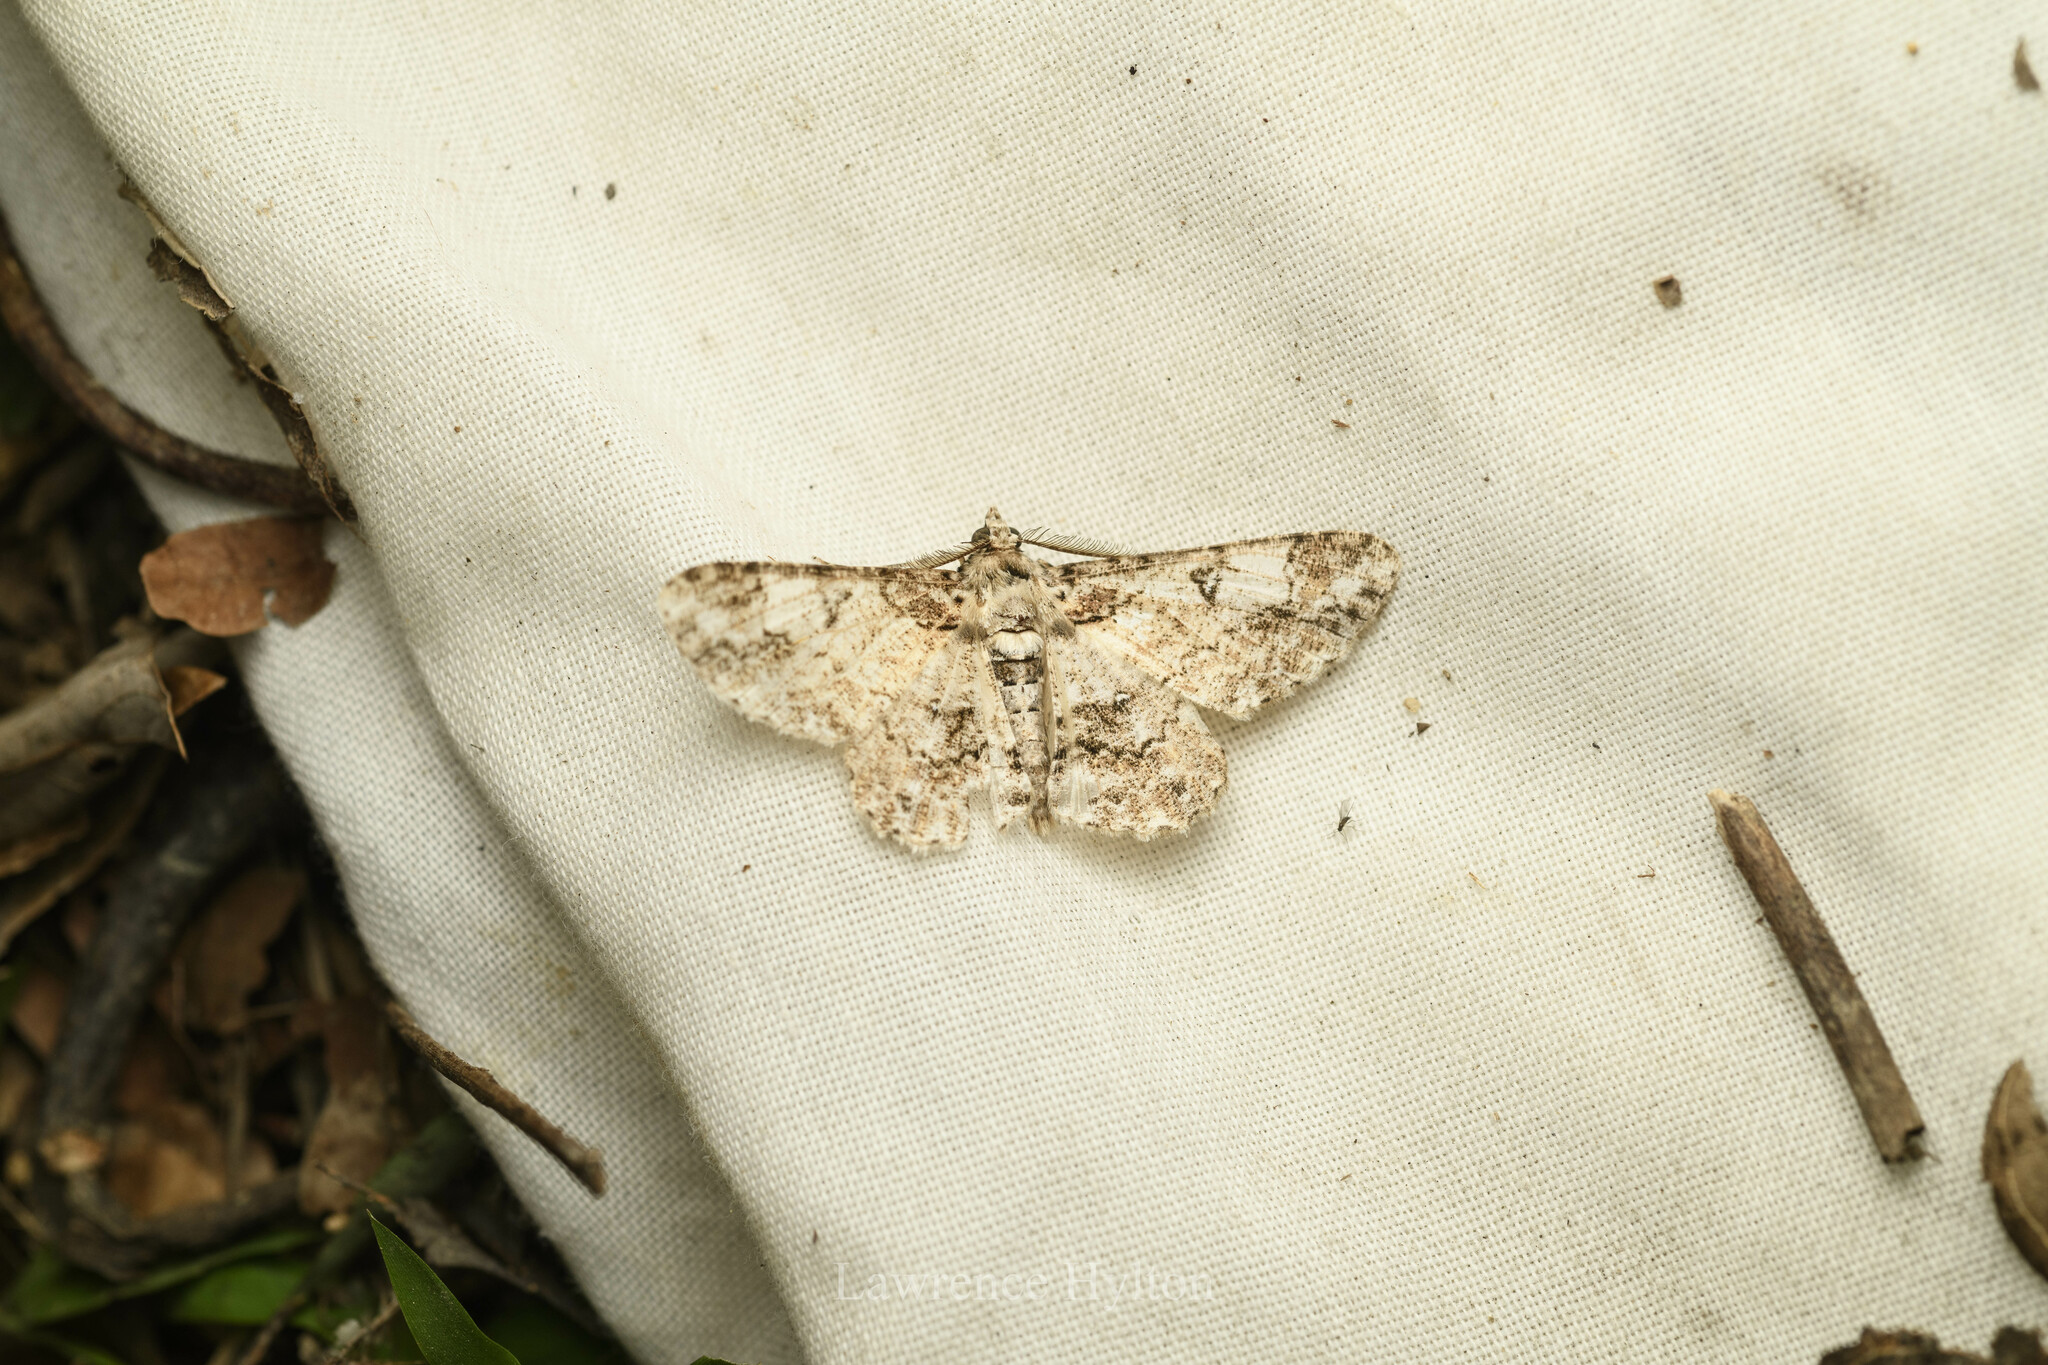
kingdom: Animalia
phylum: Arthropoda
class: Insecta
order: Lepidoptera
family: Geometridae
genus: Cleora
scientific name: Cleora fraterna
